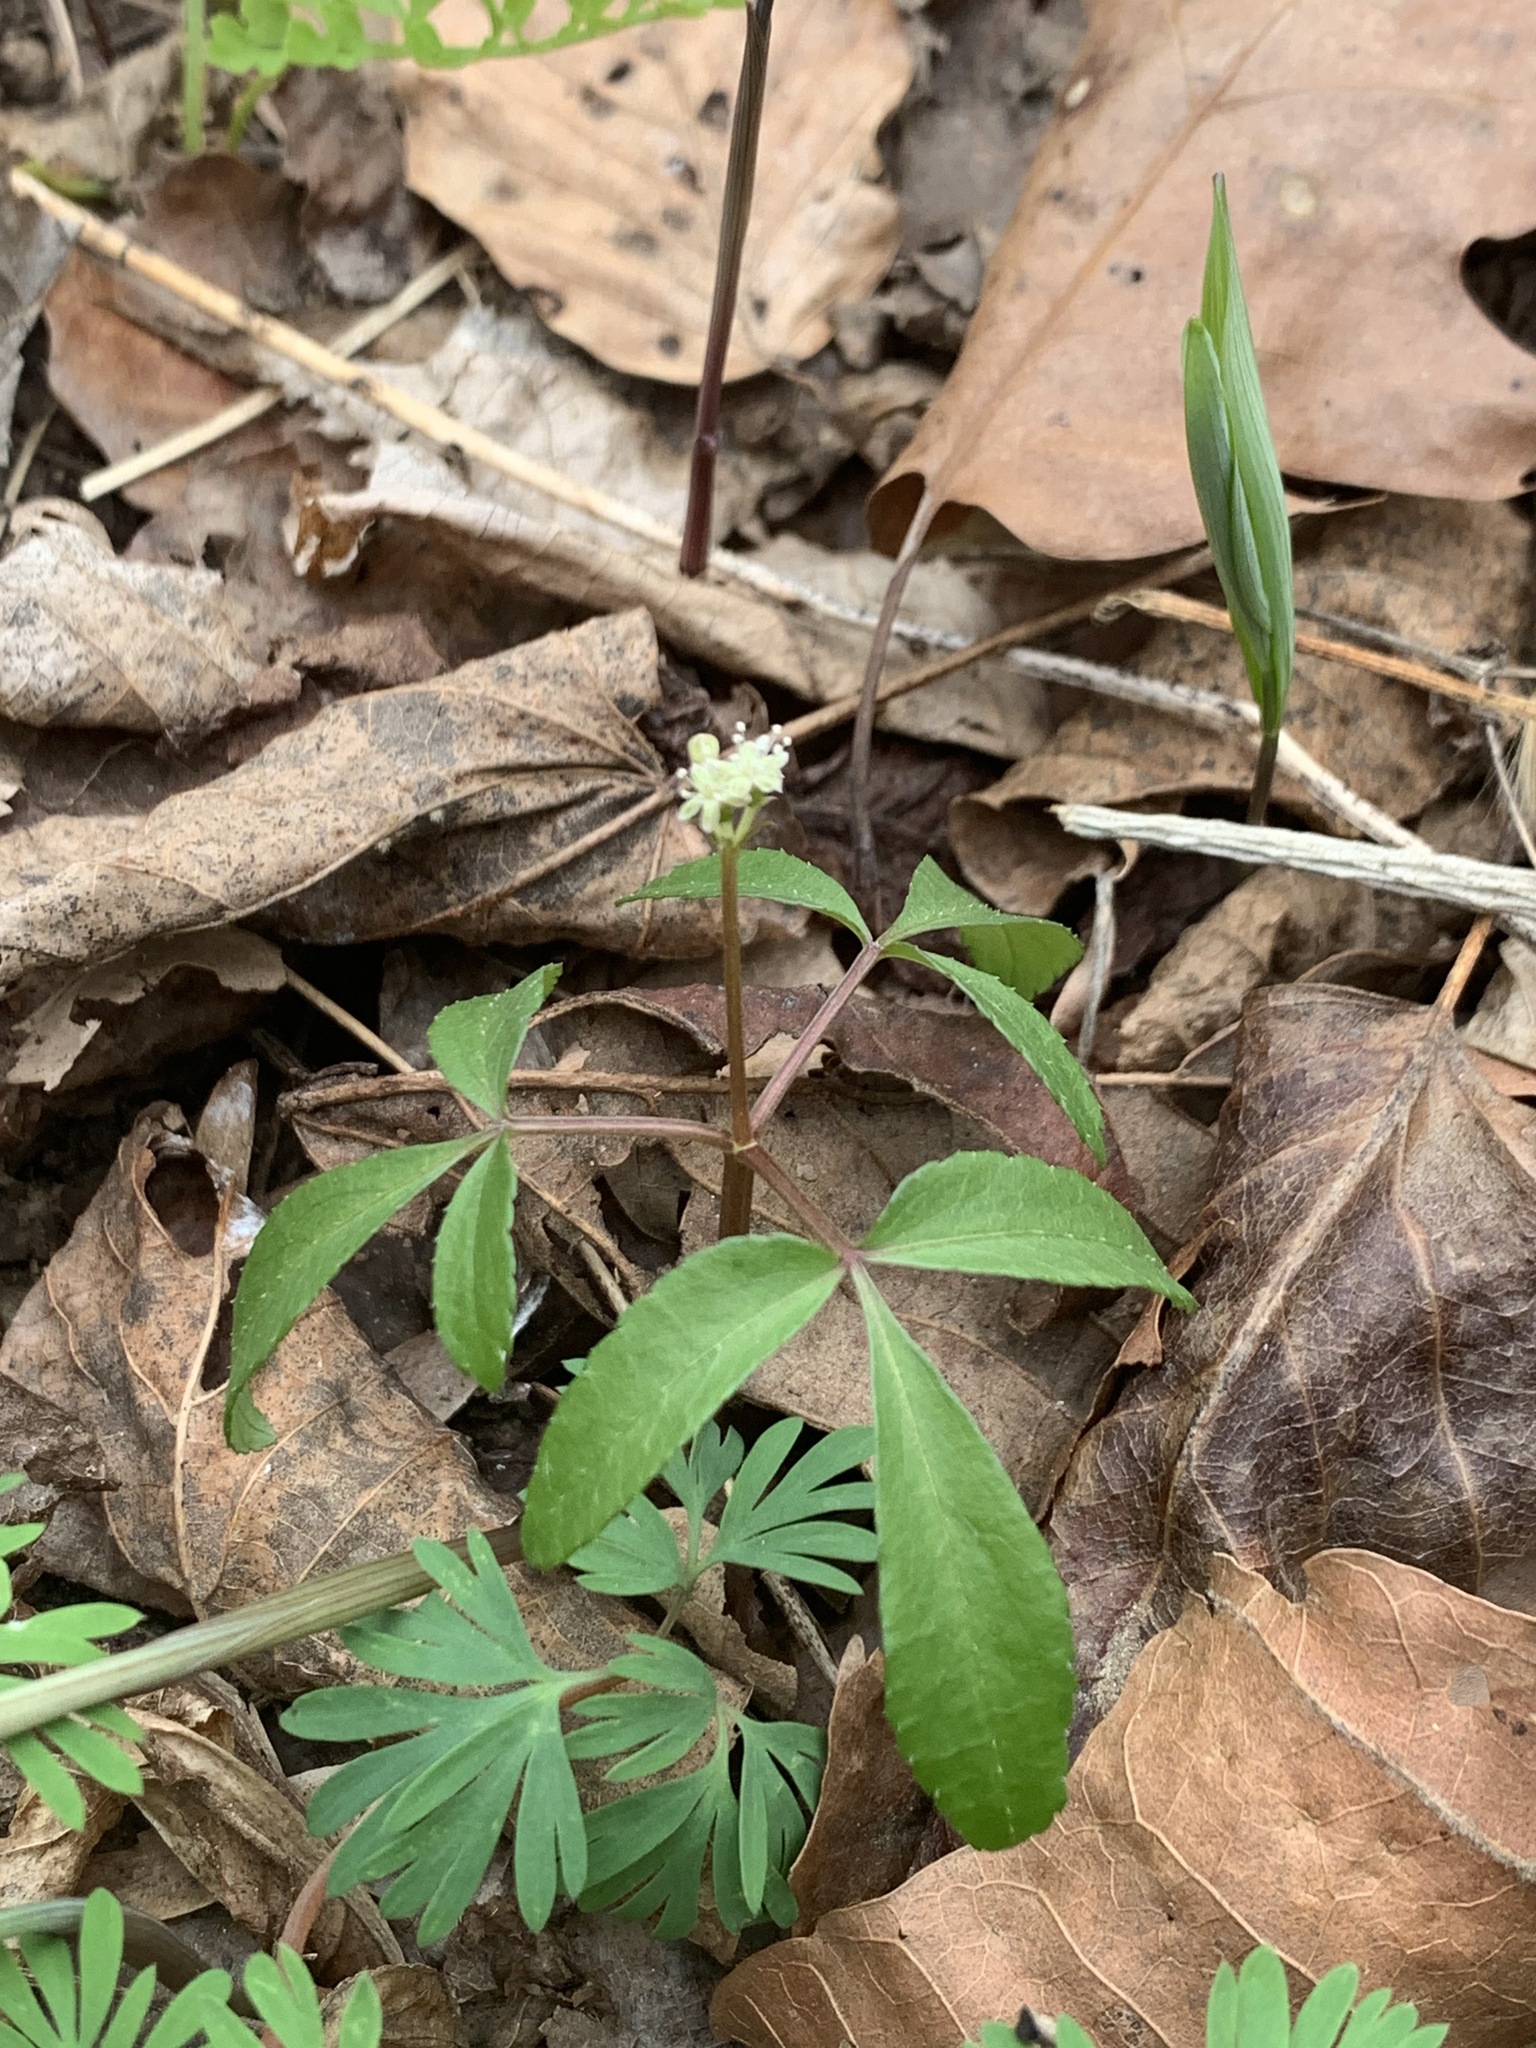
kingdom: Plantae
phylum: Tracheophyta
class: Magnoliopsida
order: Apiales
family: Araliaceae
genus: Panax
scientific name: Panax trifolius
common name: Dwarf ginseng
